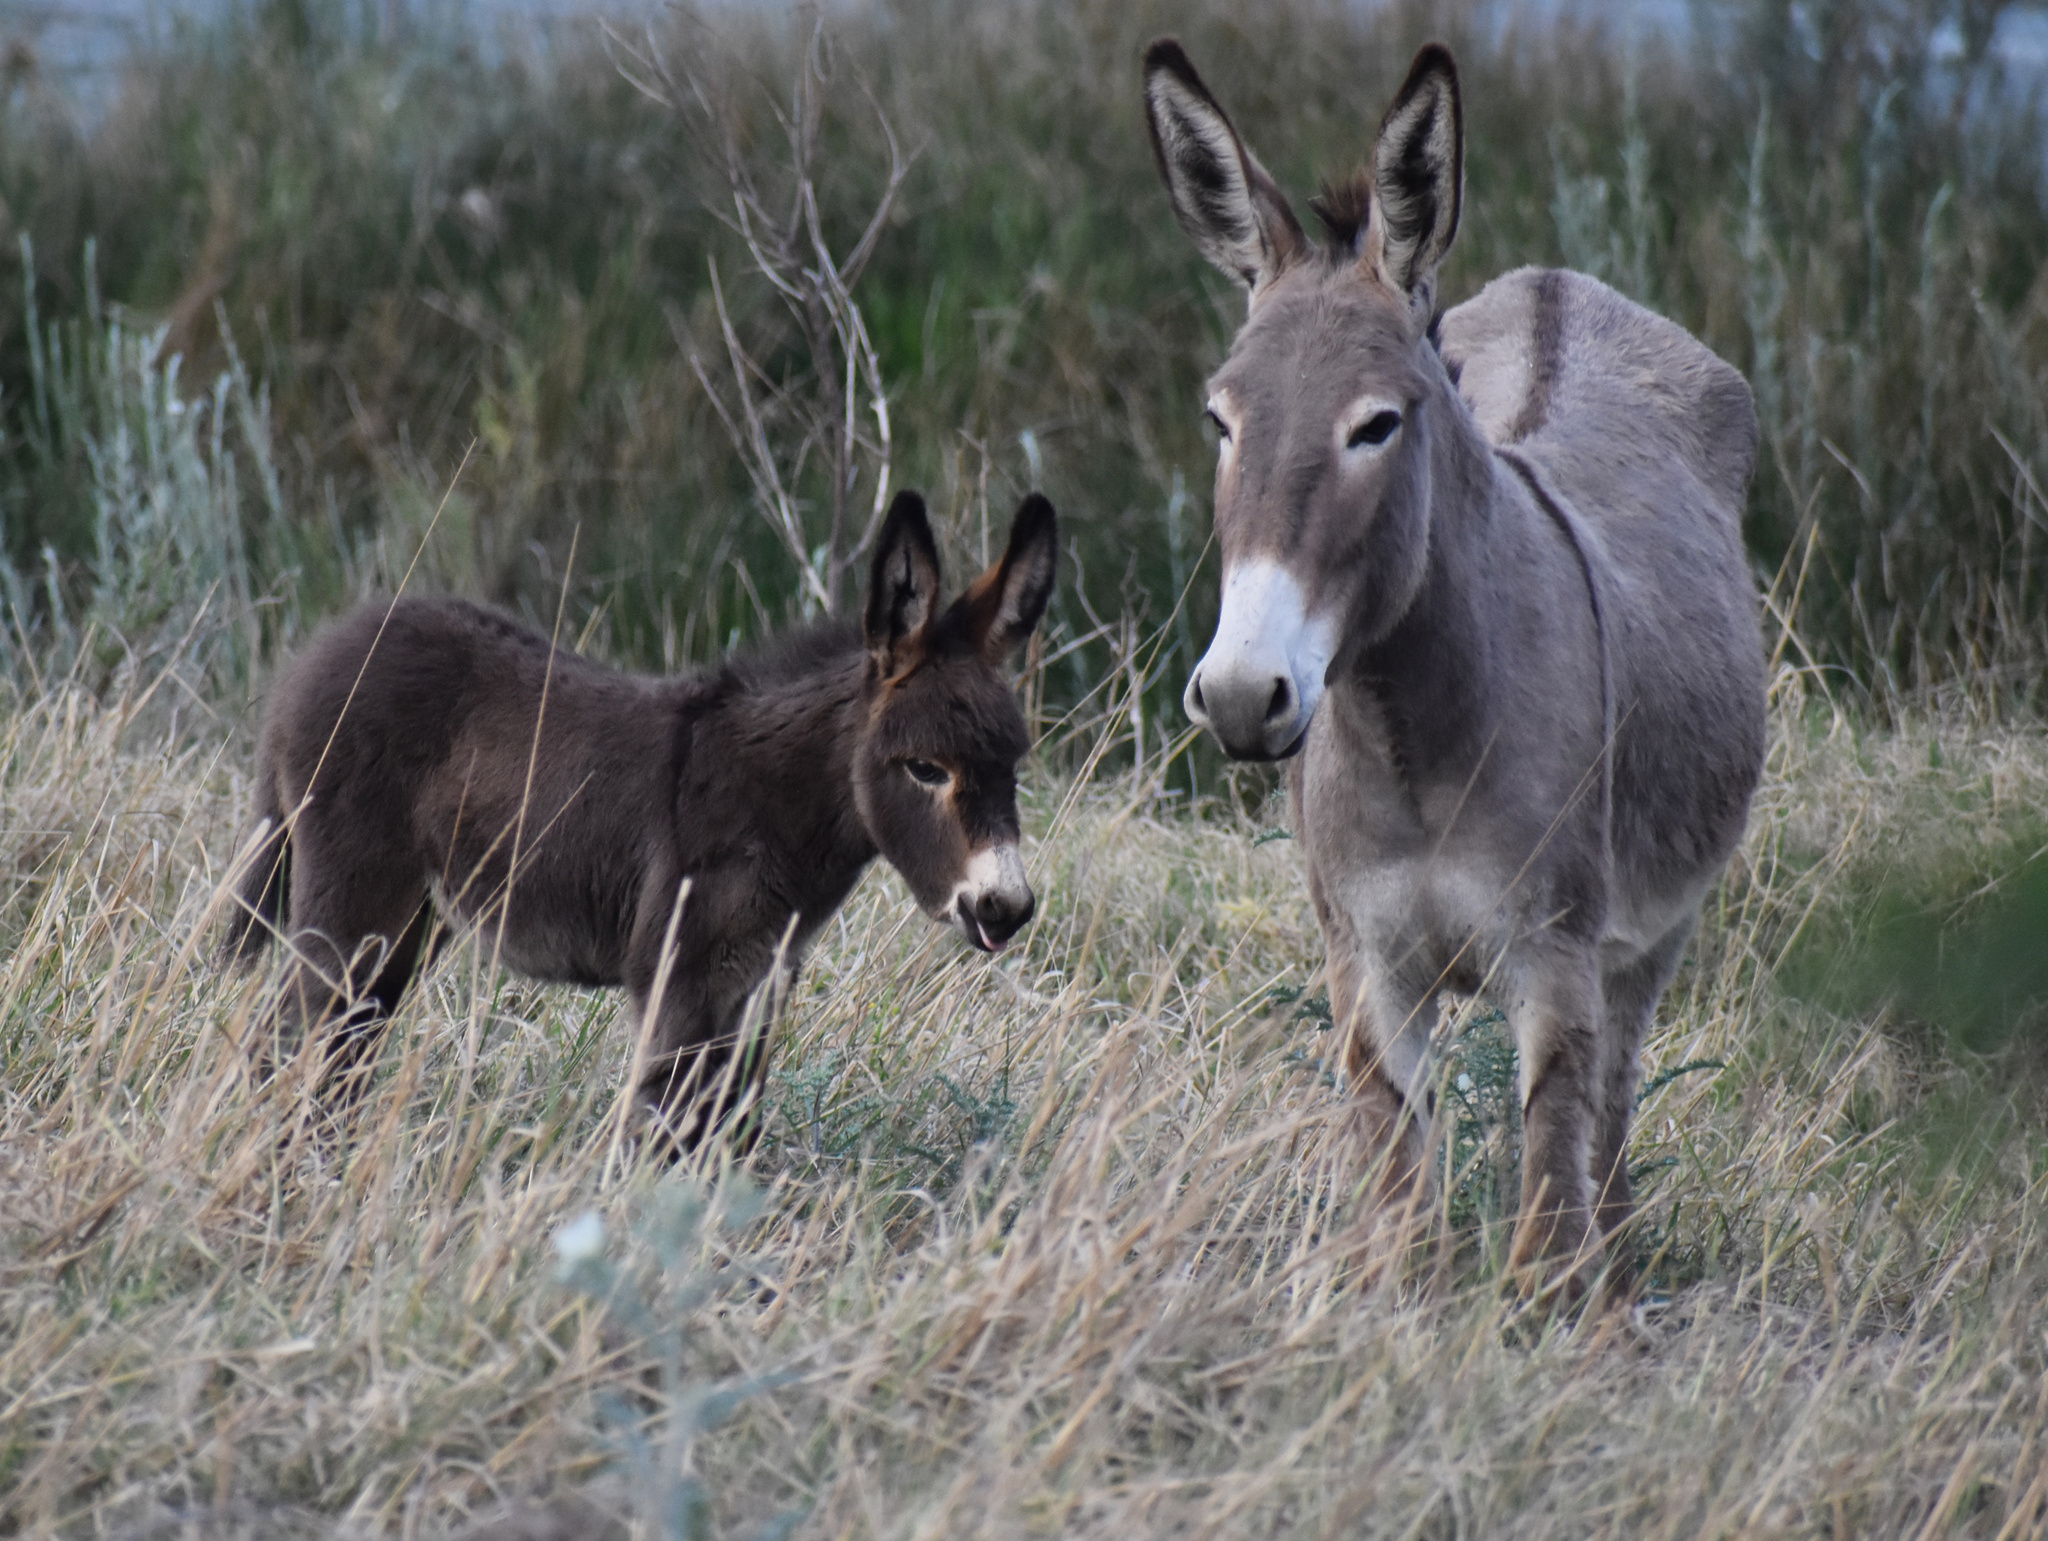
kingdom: Animalia
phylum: Chordata
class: Mammalia
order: Perissodactyla
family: Equidae
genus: Equus
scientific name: Equus asinus
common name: Ass
